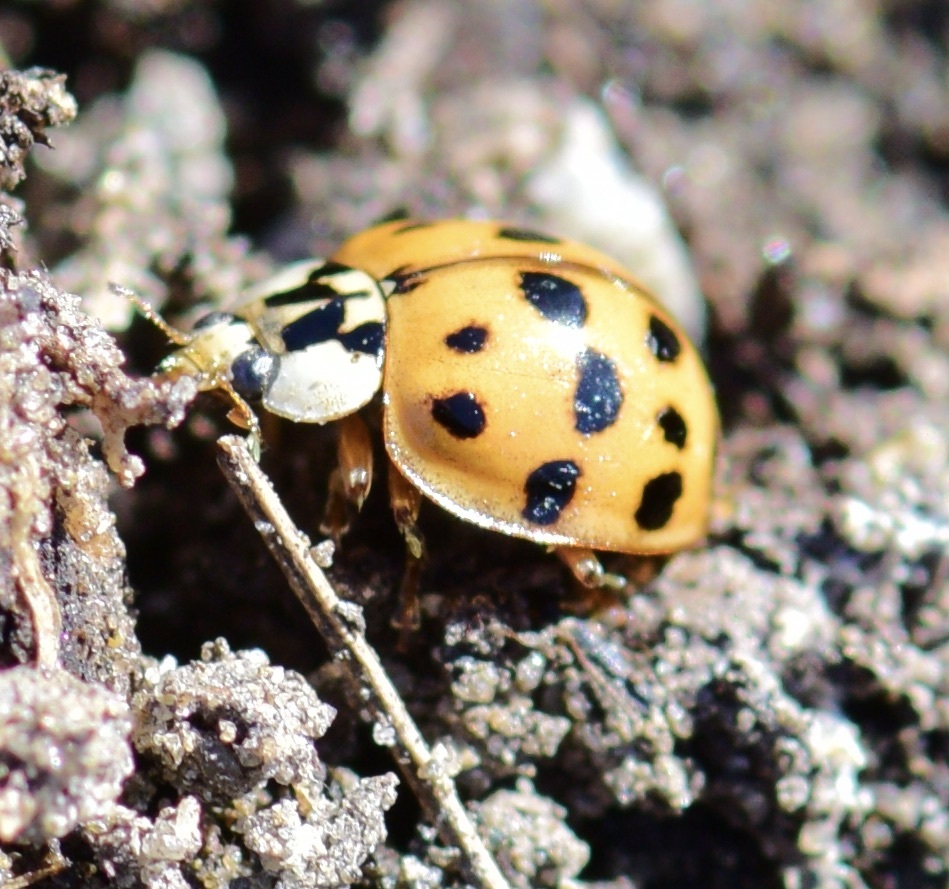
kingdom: Animalia
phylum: Arthropoda
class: Insecta
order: Coleoptera
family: Coccinellidae
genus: Harmonia
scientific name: Harmonia axyridis
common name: Harlequin ladybird
